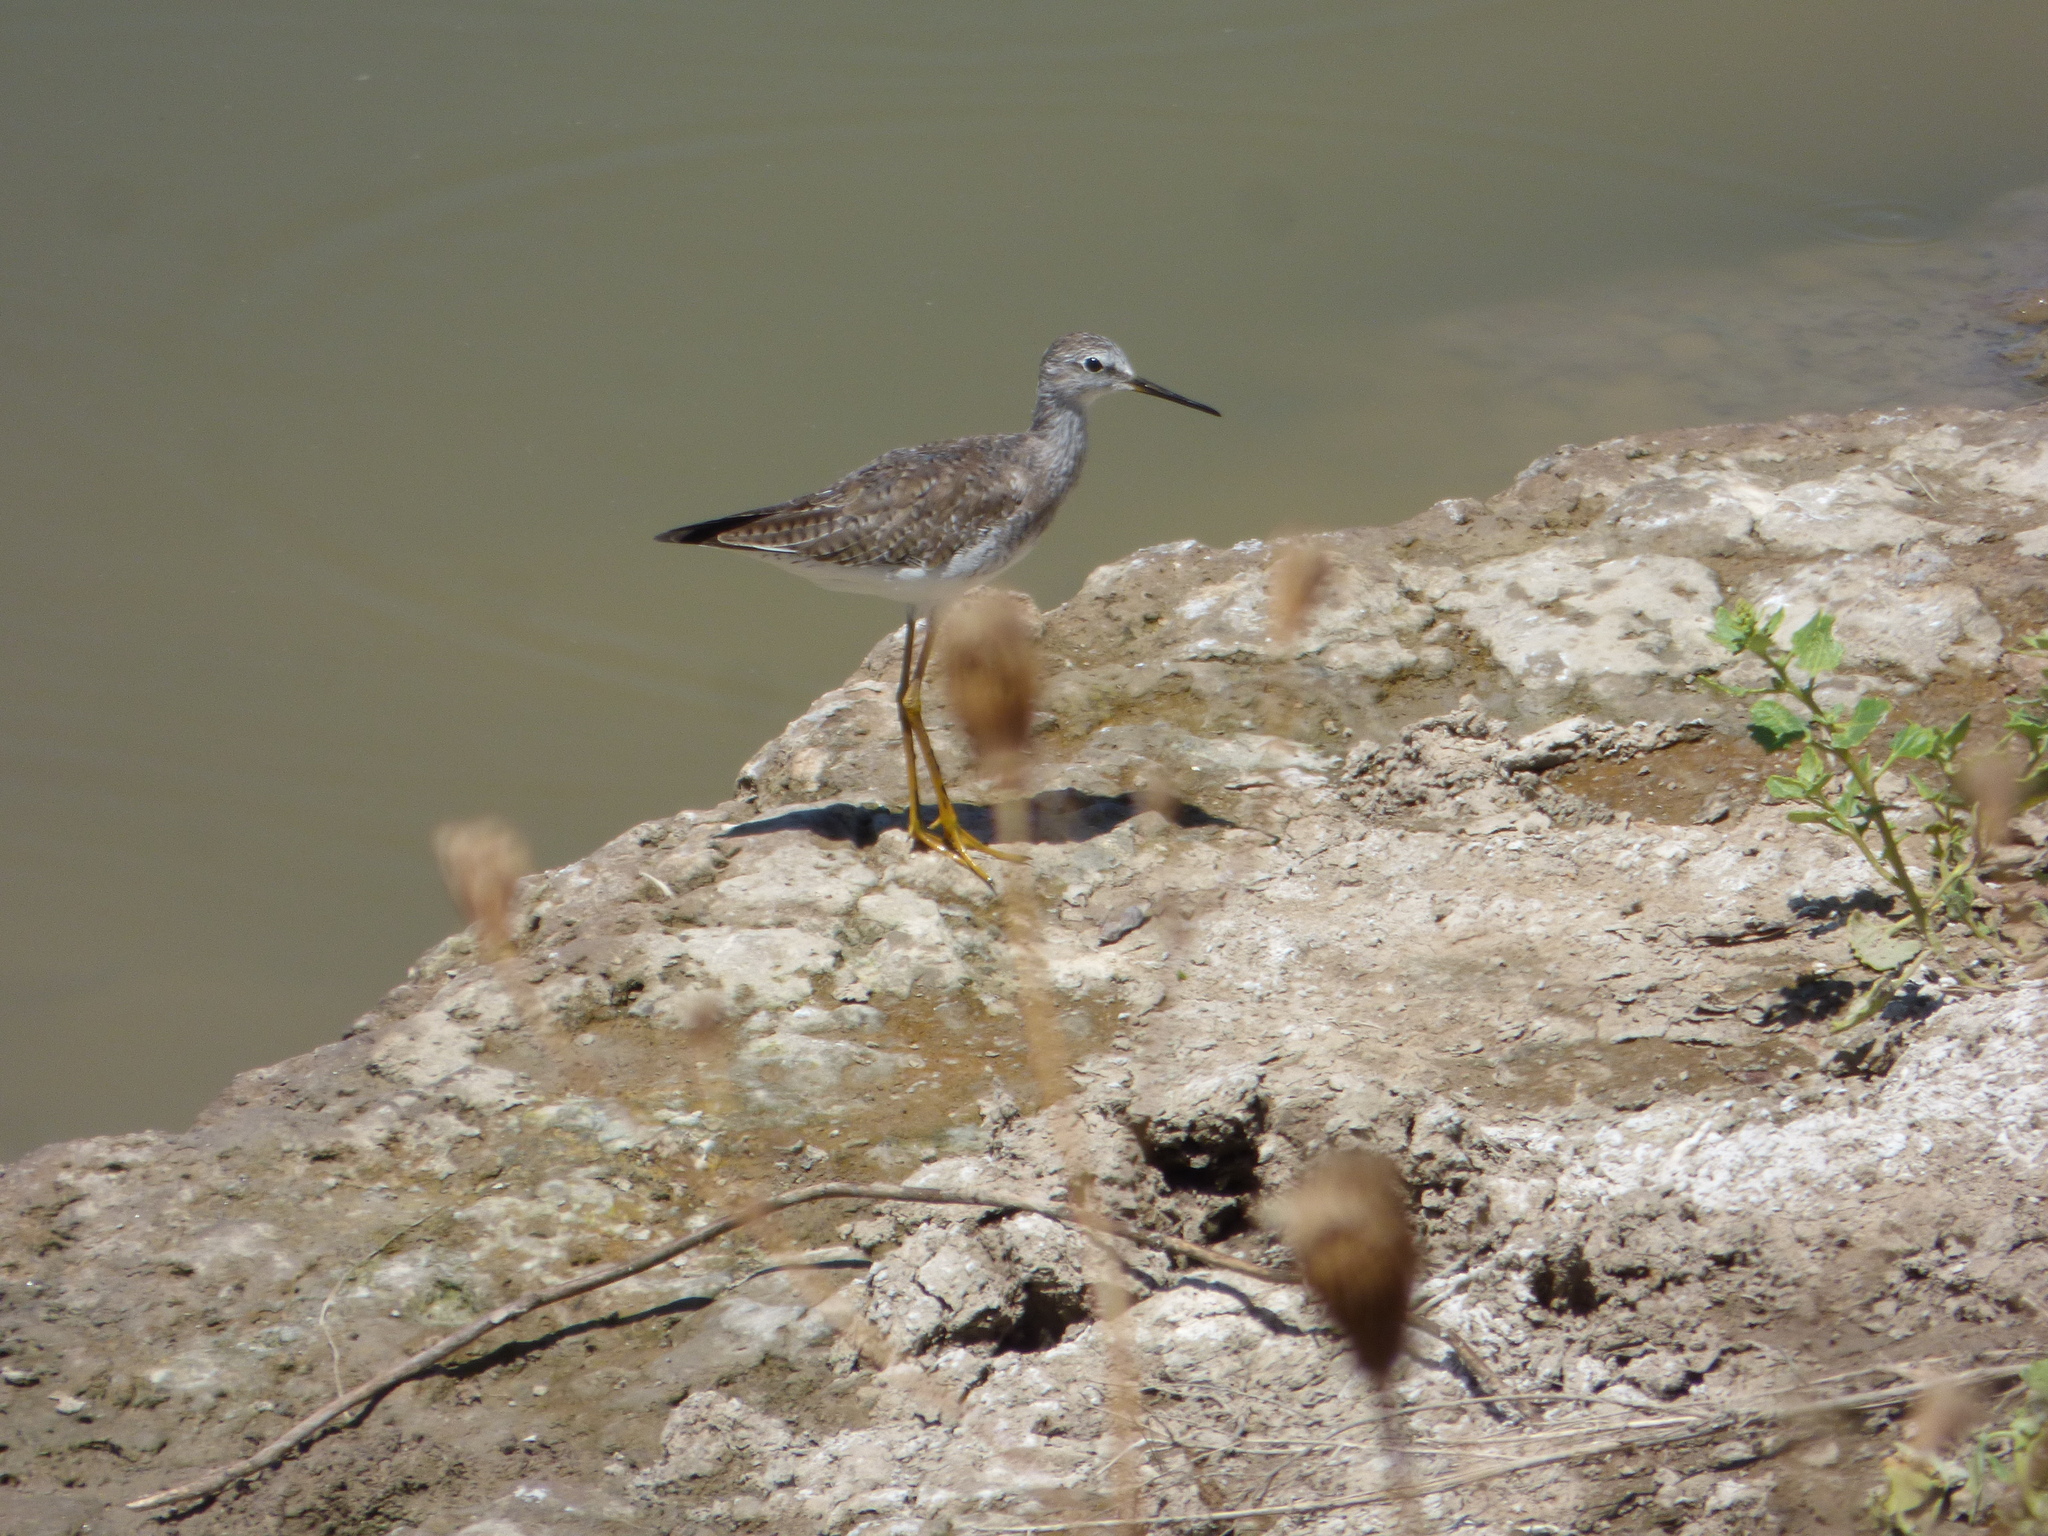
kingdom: Animalia
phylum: Chordata
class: Aves
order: Charadriiformes
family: Scolopacidae
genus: Tringa
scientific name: Tringa flavipes
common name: Lesser yellowlegs
